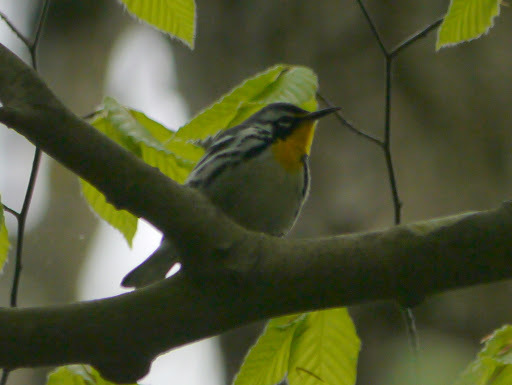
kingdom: Animalia
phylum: Chordata
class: Aves
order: Passeriformes
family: Parulidae
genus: Setophaga
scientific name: Setophaga dominica
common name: Yellow-throated warbler
